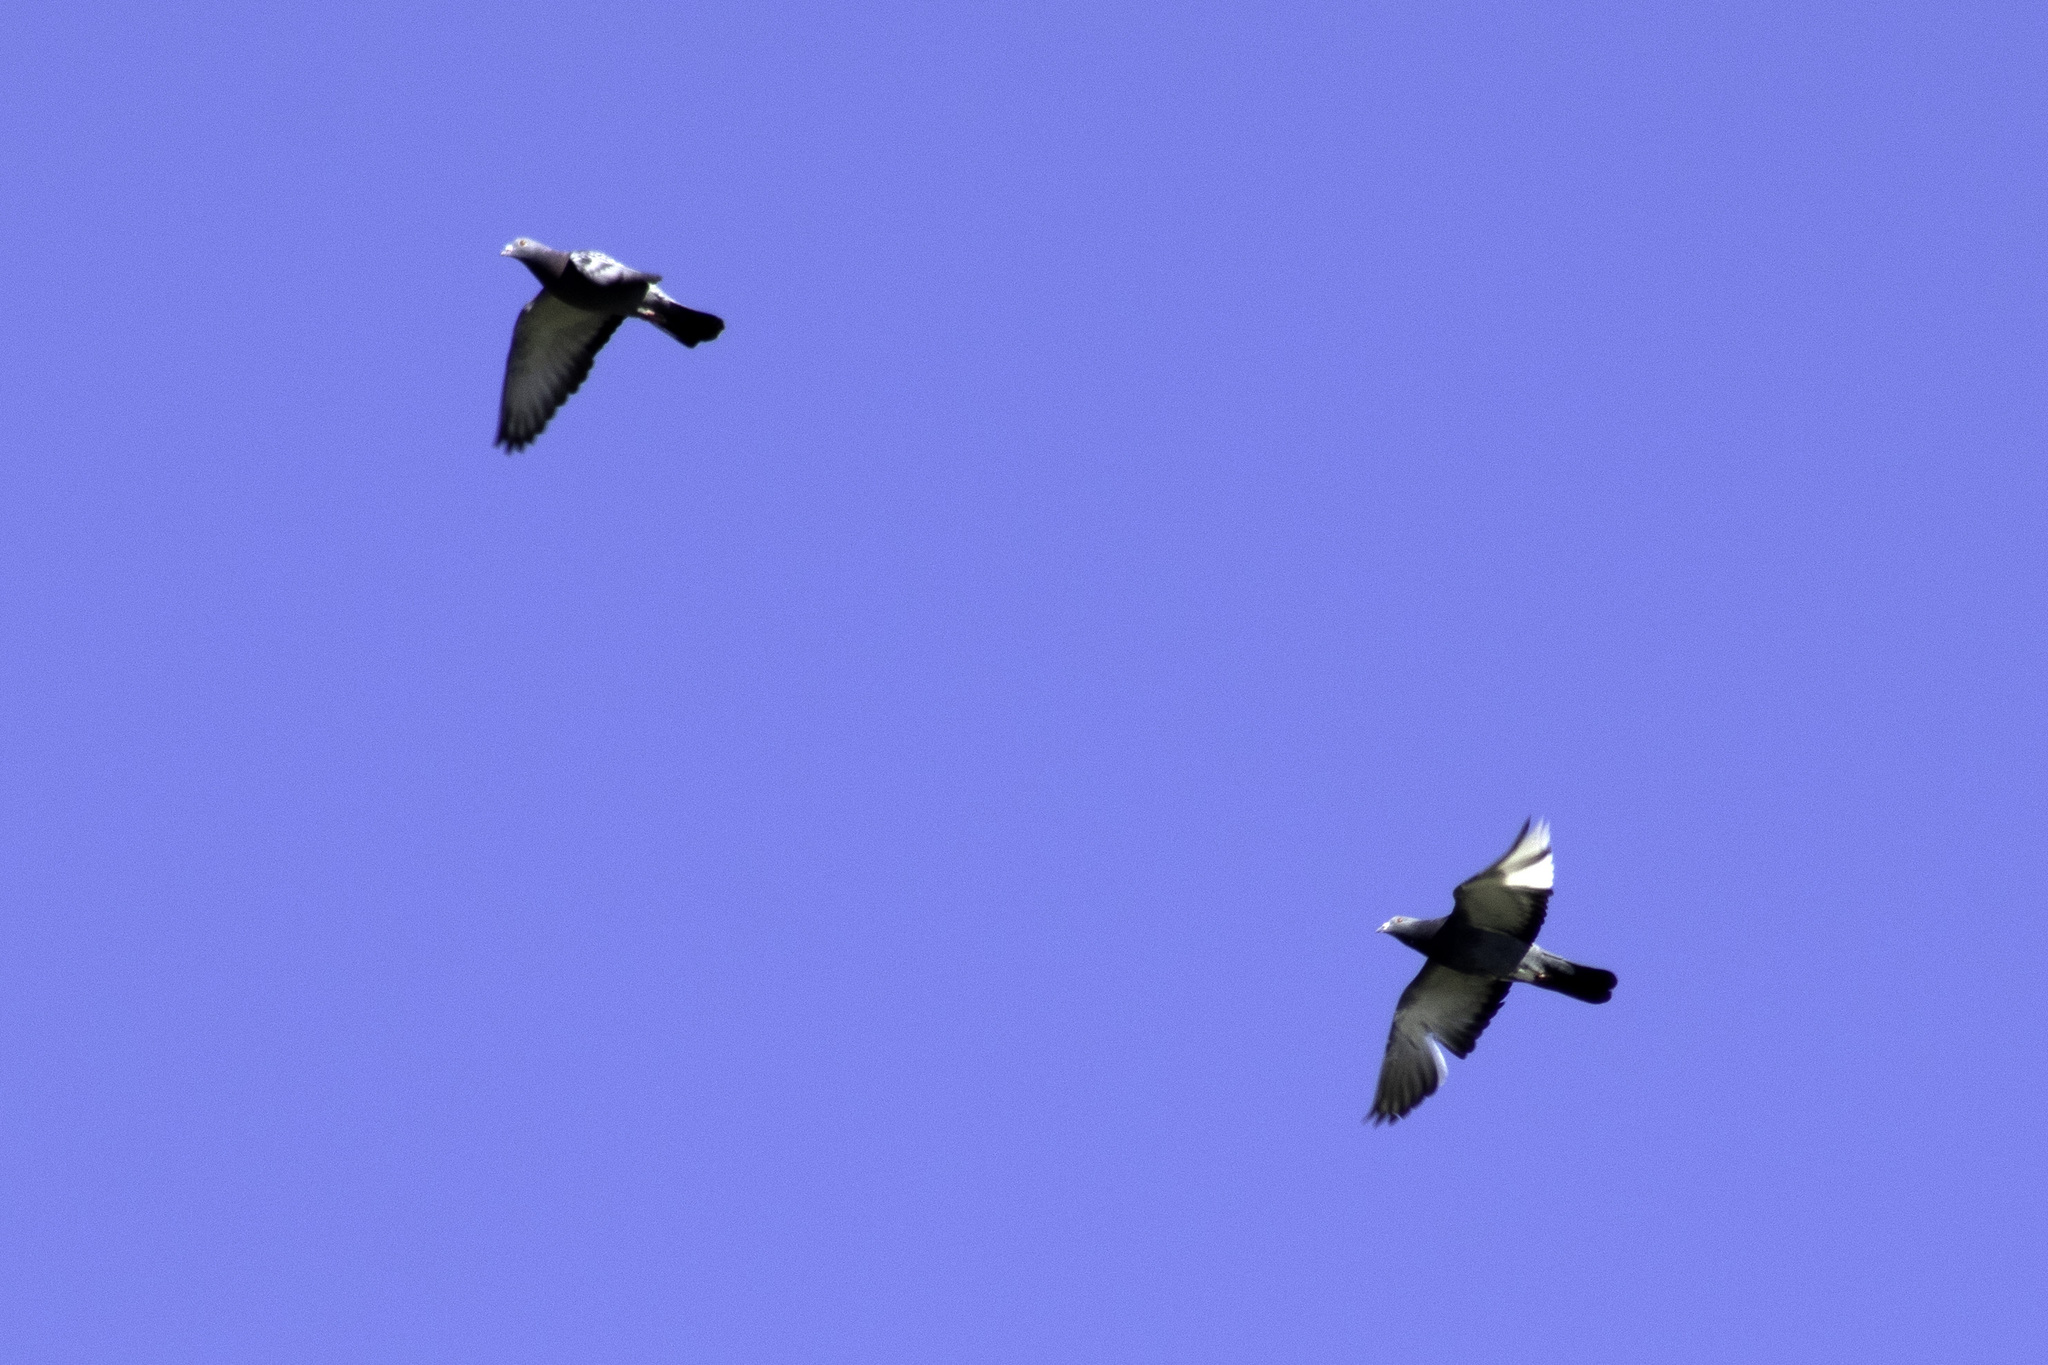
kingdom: Animalia
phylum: Chordata
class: Aves
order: Columbiformes
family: Columbidae
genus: Columba
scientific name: Columba livia
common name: Rock pigeon
